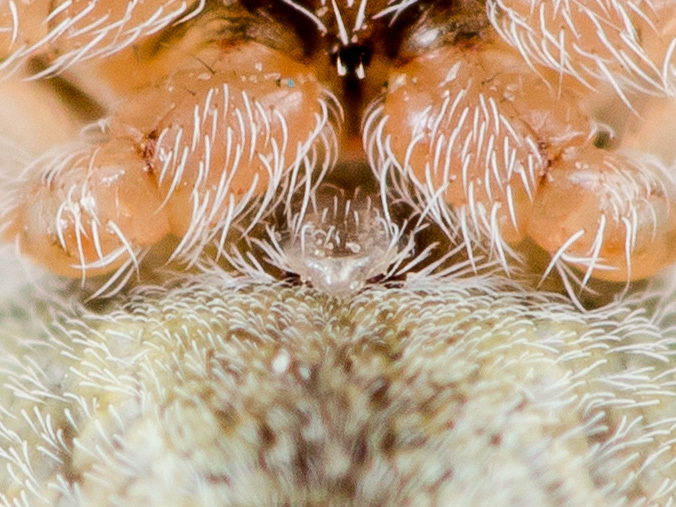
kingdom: Animalia
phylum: Arthropoda
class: Arachnida
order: Araneae
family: Araneidae
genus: Araneus
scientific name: Araneus strandiellus
